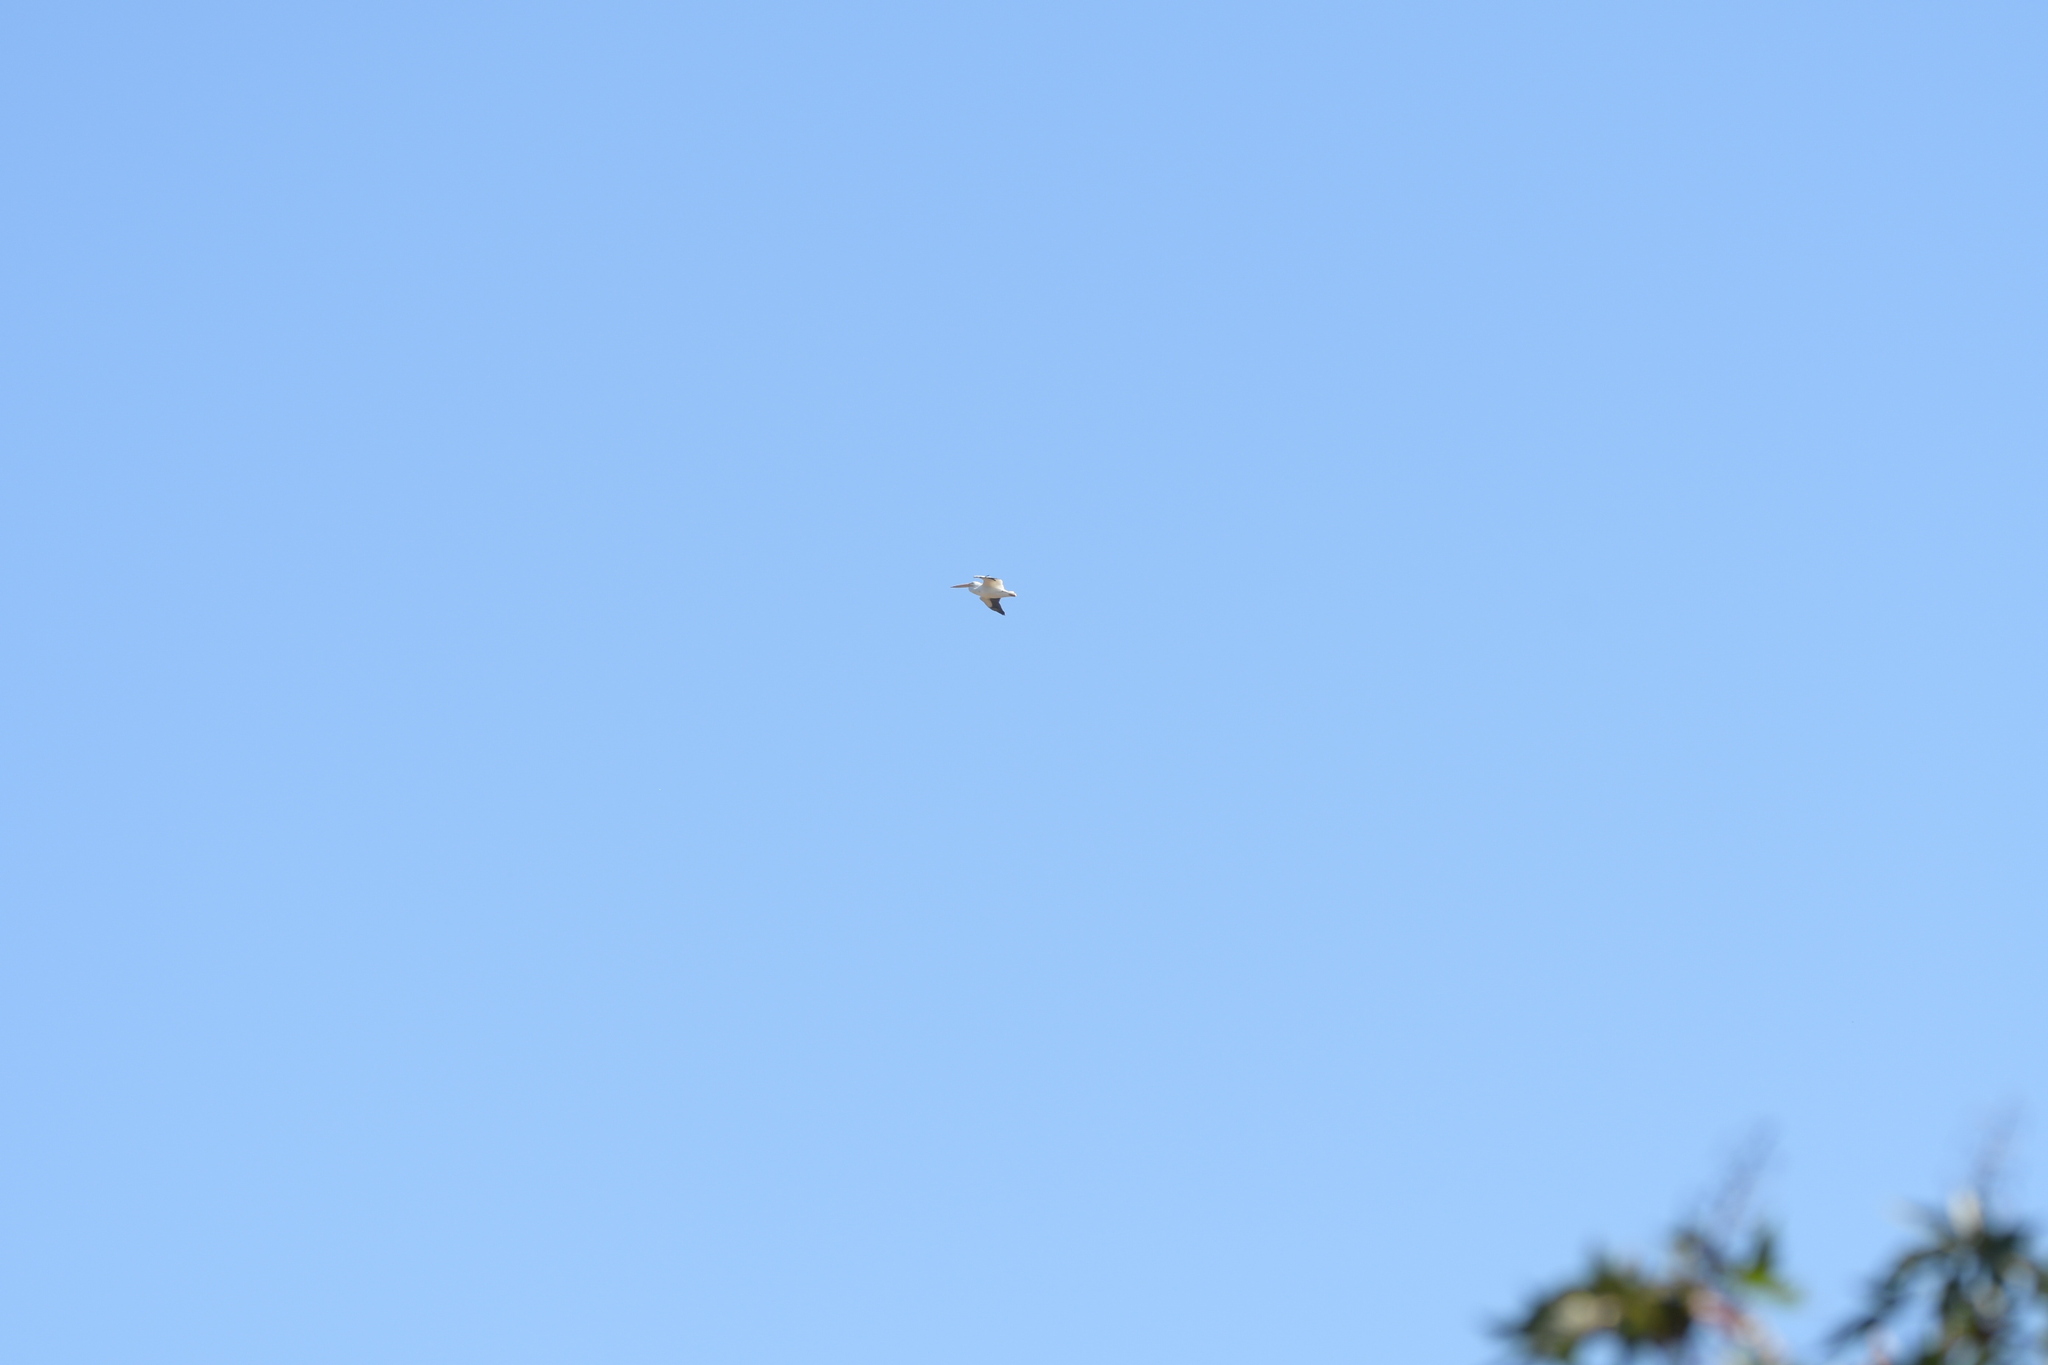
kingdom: Animalia
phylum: Chordata
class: Aves
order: Pelecaniformes
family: Pelecanidae
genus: Pelecanus
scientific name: Pelecanus erythrorhynchos
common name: American white pelican
